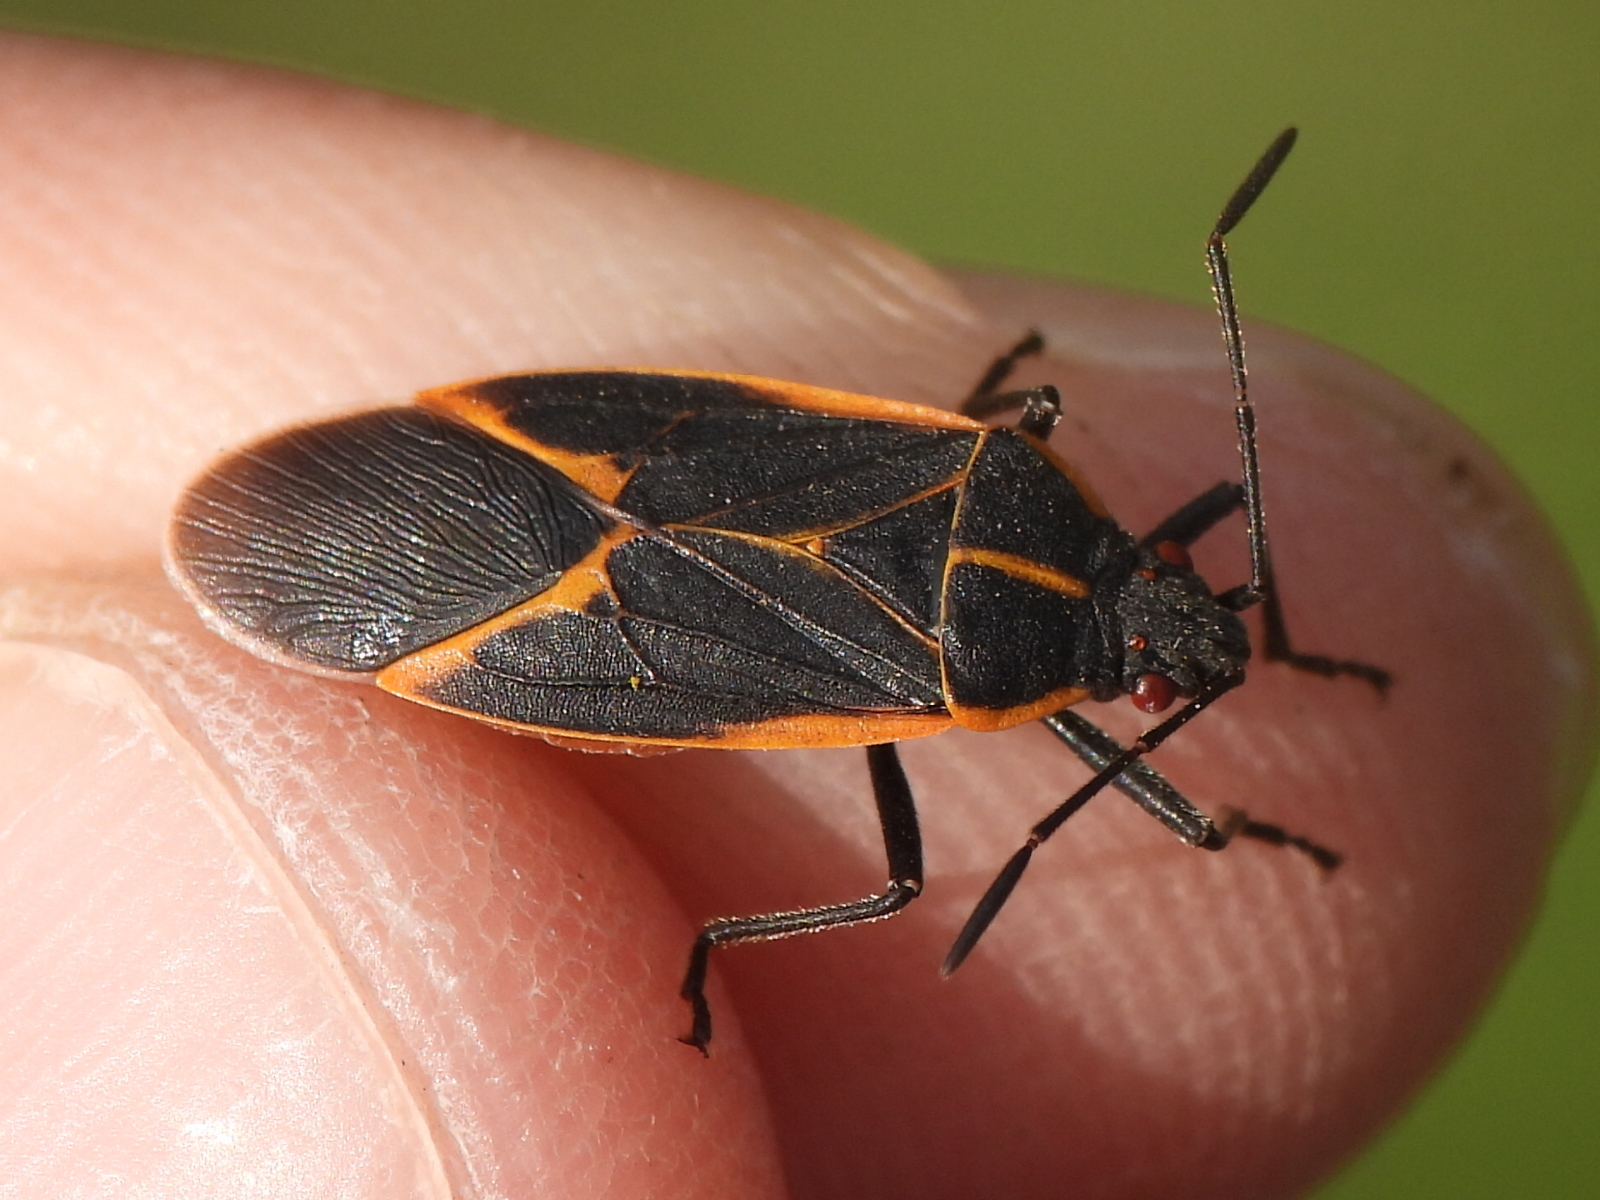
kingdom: Animalia
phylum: Arthropoda
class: Insecta
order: Hemiptera
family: Rhopalidae
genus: Boisea
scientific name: Boisea trivittata
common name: Boxelder bug
